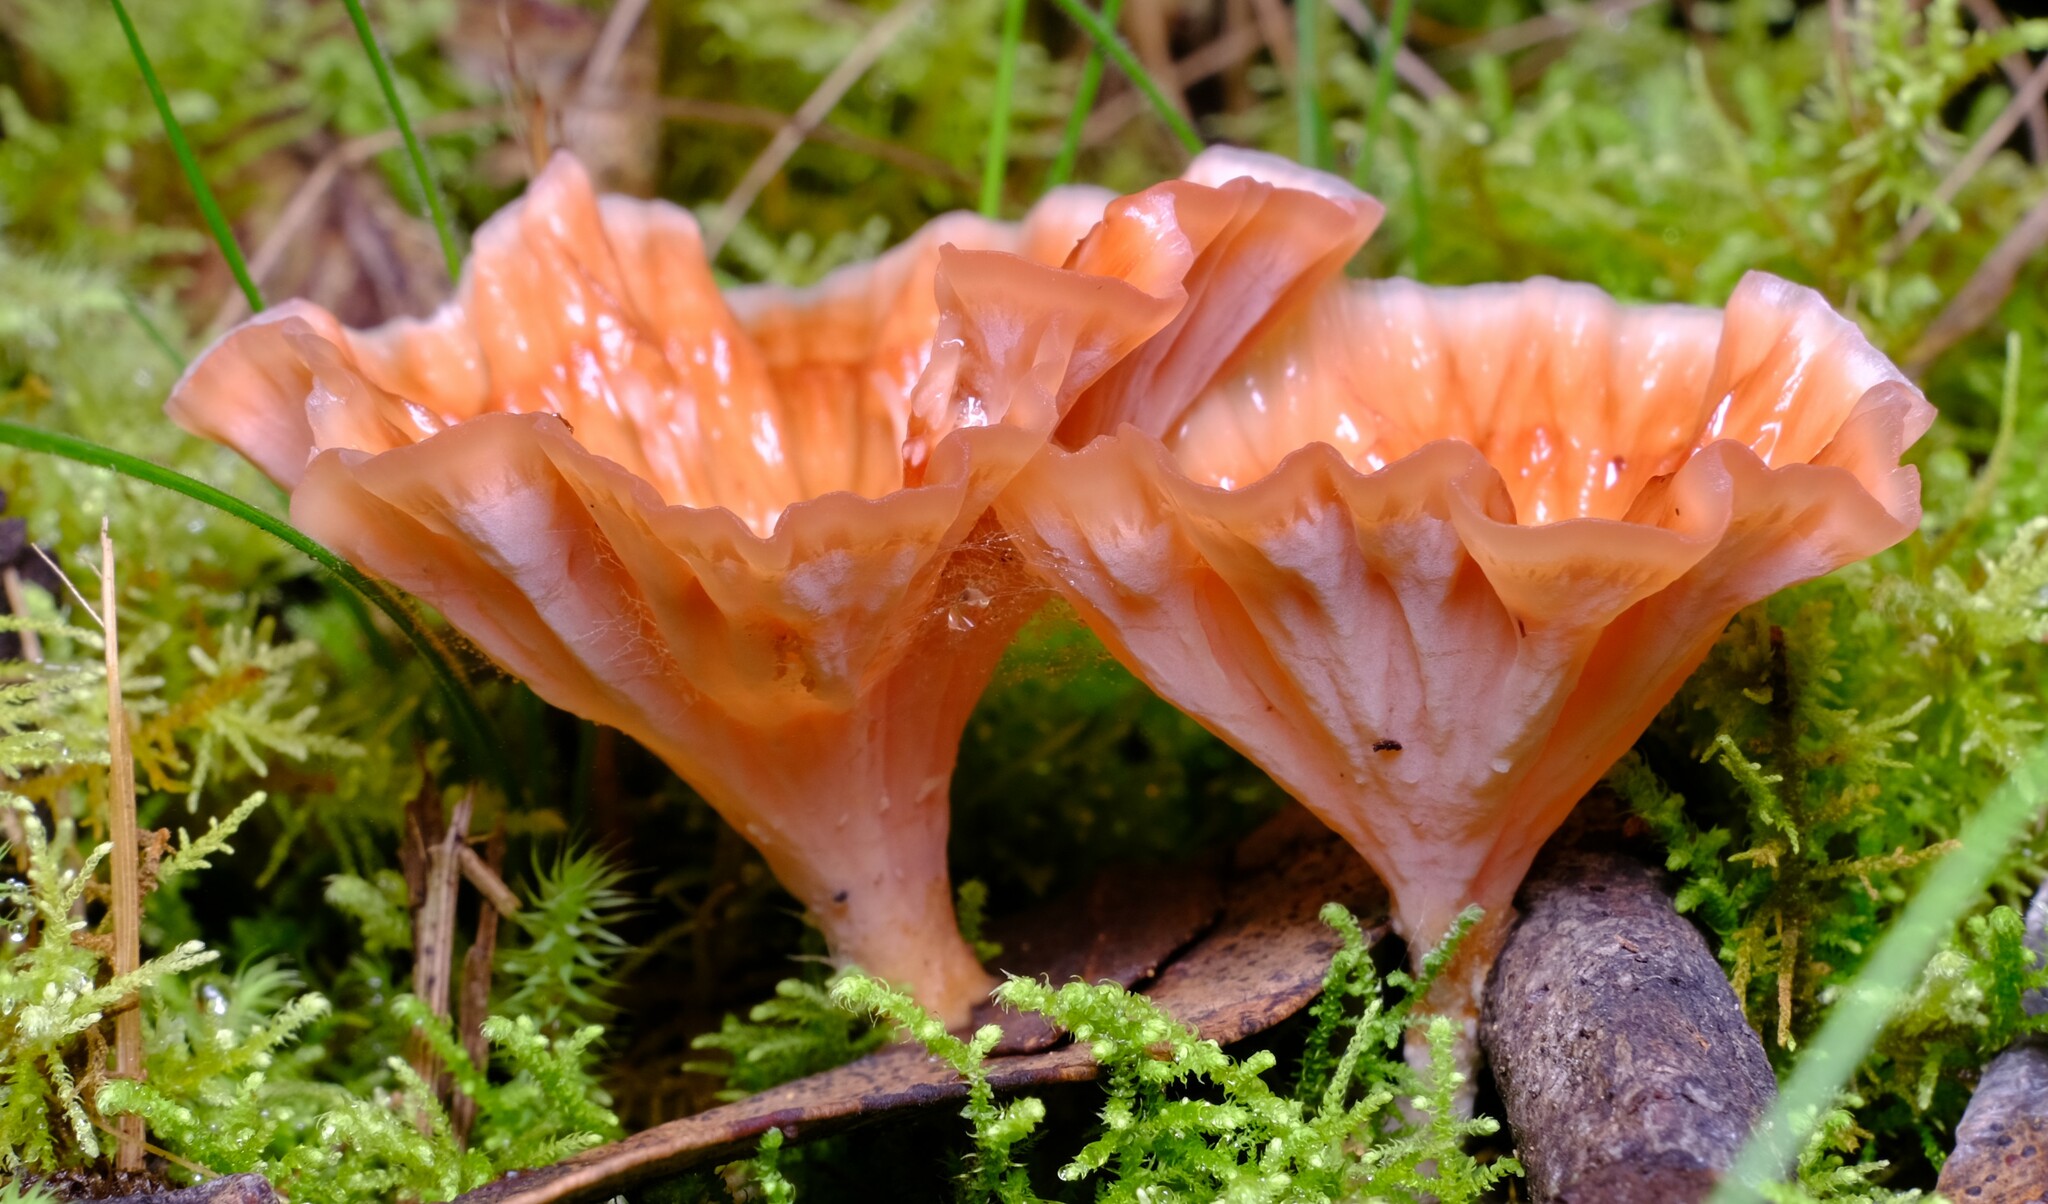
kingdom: Fungi
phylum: Basidiomycota
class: Agaricomycetes
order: Polyporales
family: Podoscyphaceae
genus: Podoscypha
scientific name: Podoscypha petalodes
